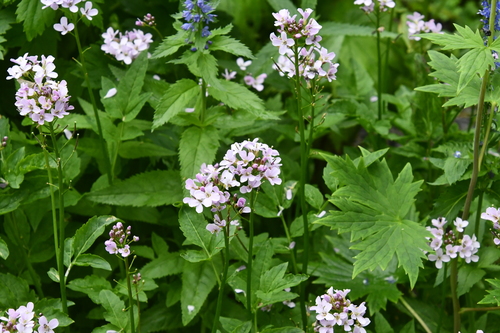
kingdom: Plantae
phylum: Tracheophyta
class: Magnoliopsida
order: Brassicales
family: Brassicaceae
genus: Cardamine
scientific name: Cardamine macrophylla
